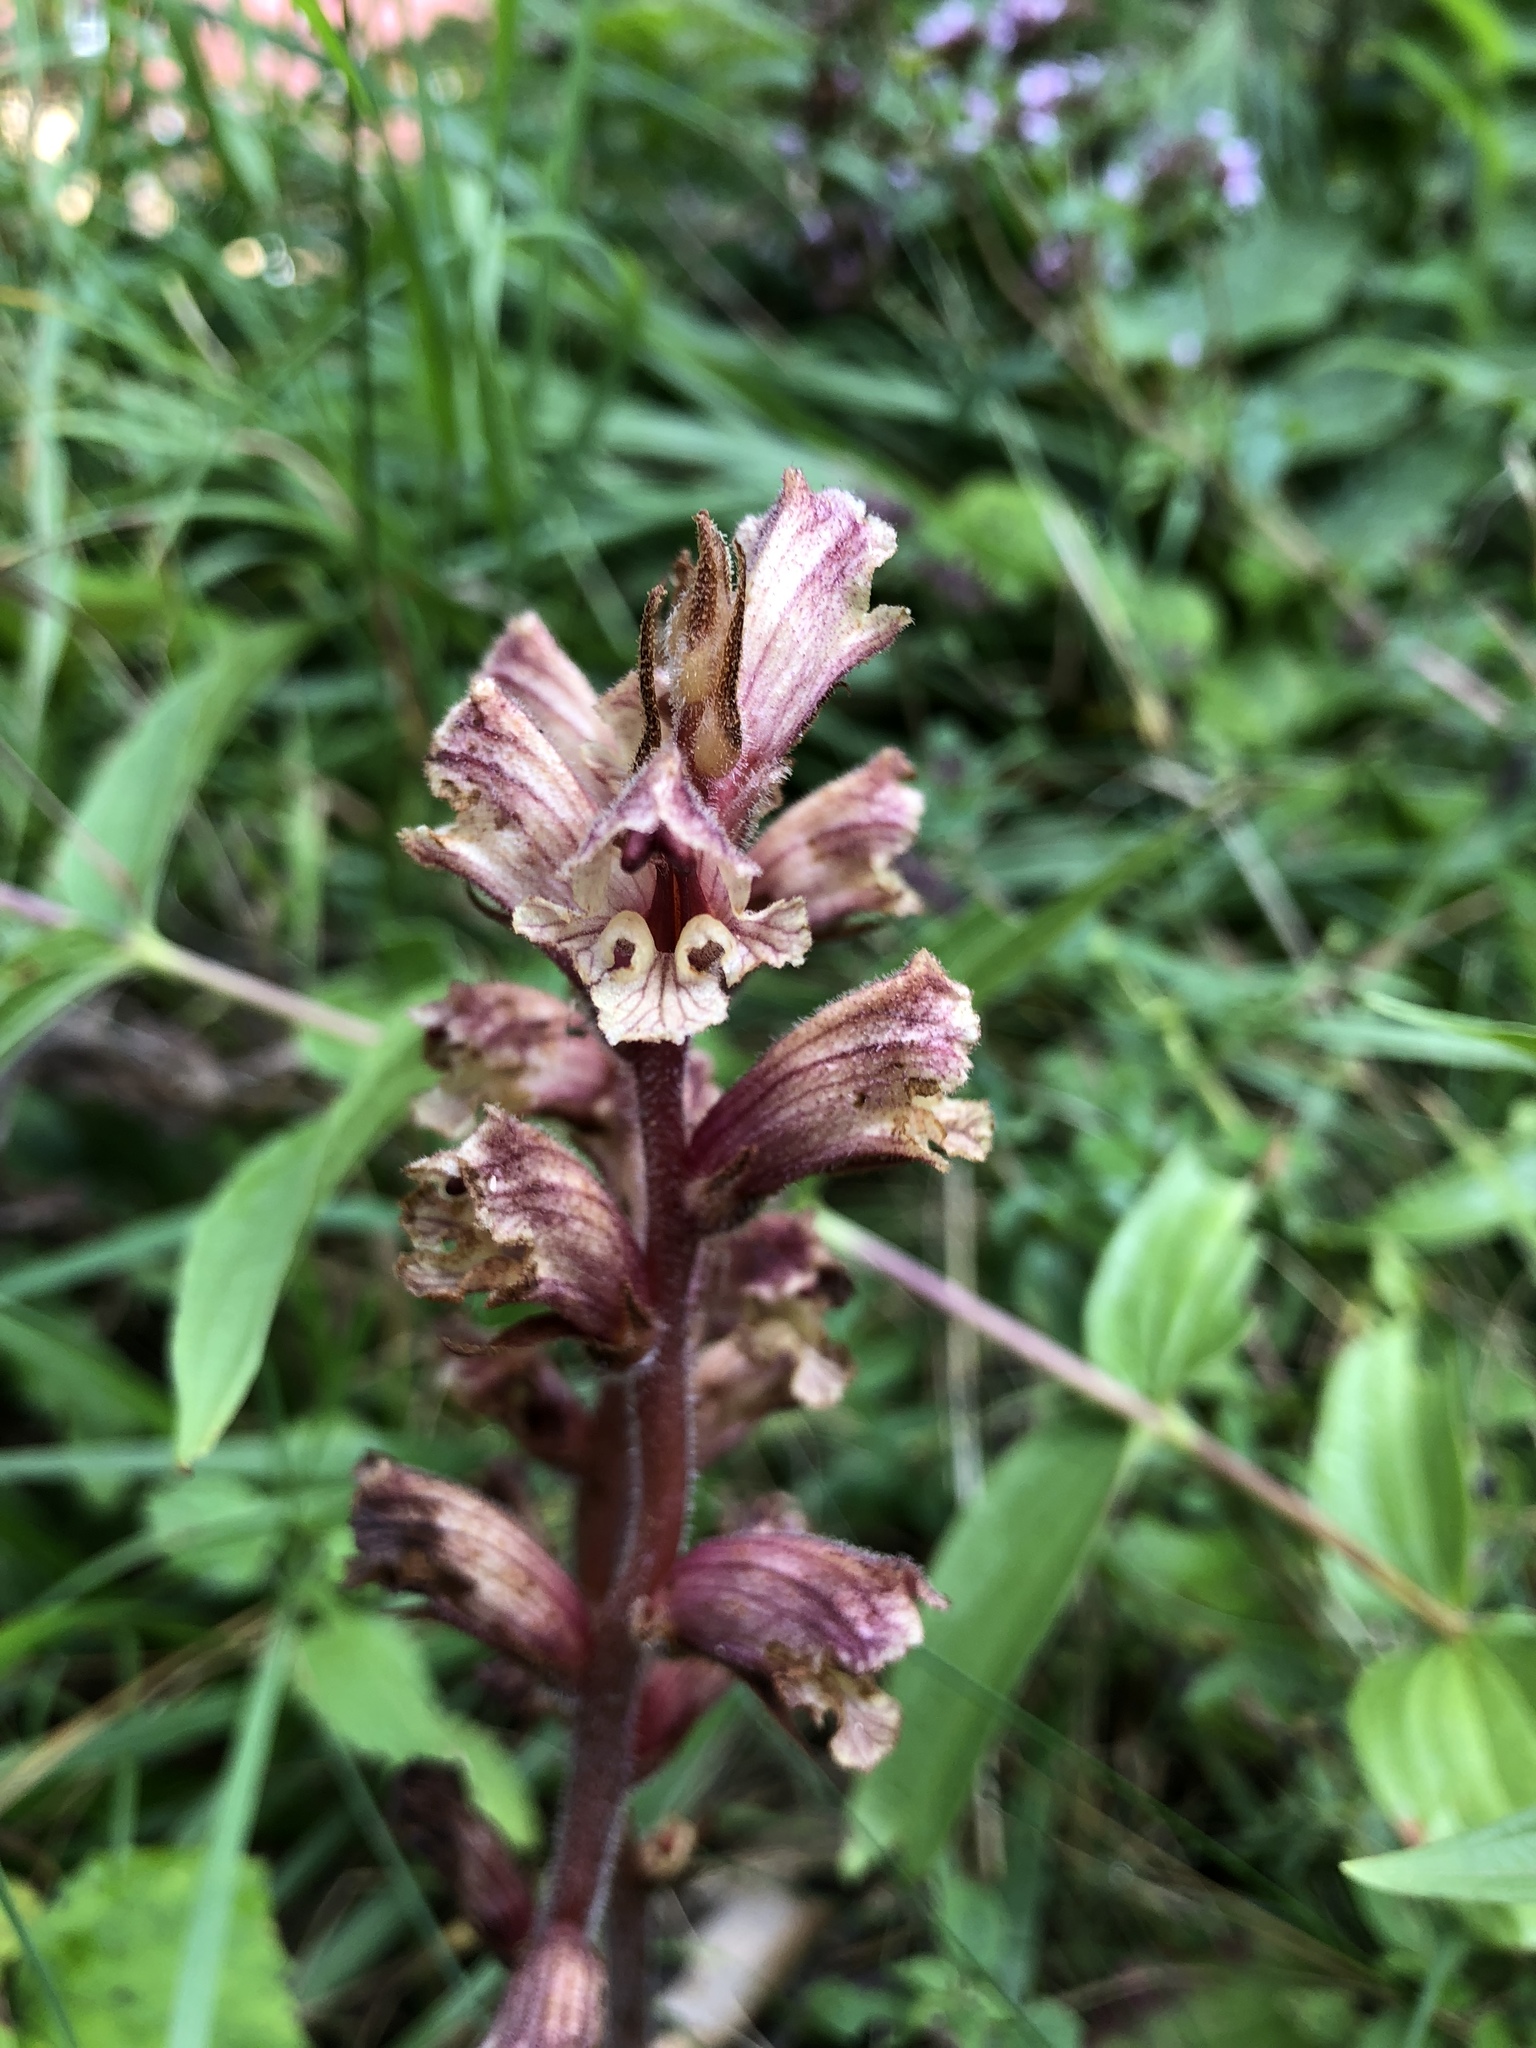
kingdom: Plantae
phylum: Tracheophyta
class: Magnoliopsida
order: Lamiales
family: Orobanchaceae
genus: Orobanche
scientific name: Orobanche alba
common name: Thyme broomrape
